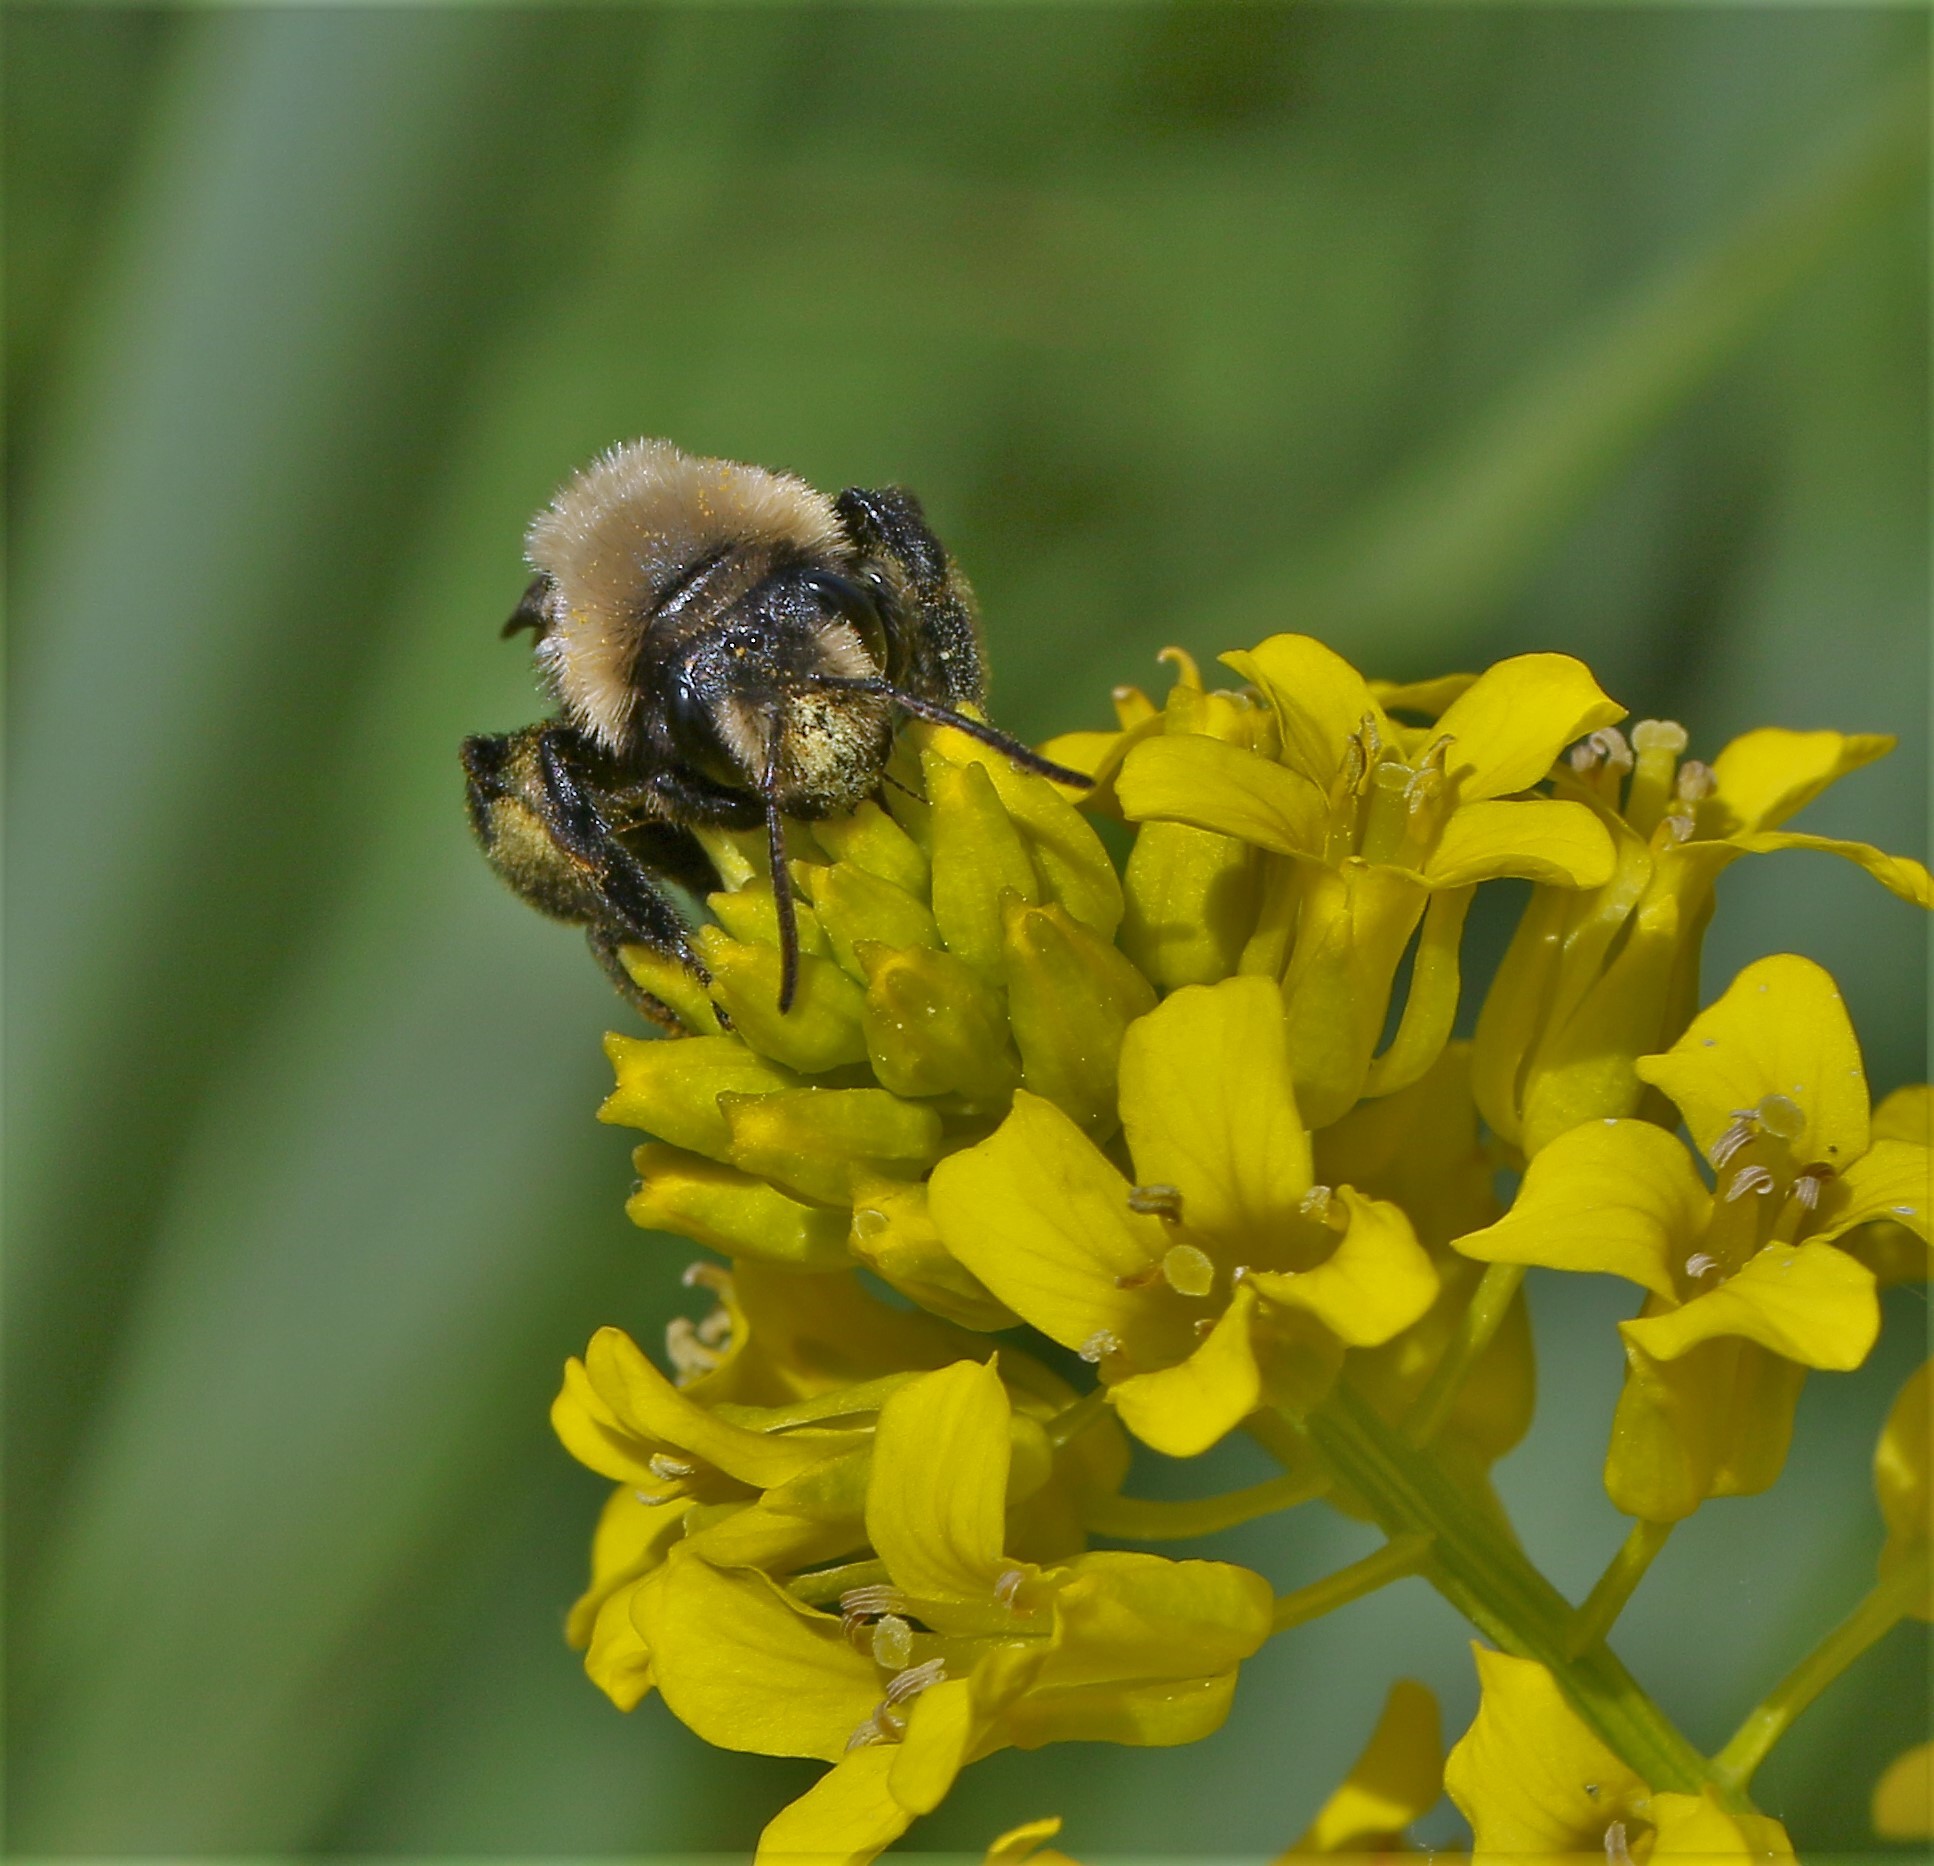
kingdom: Animalia
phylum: Arthropoda
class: Insecta
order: Hymenoptera
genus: Melandrena
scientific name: Melandrena
